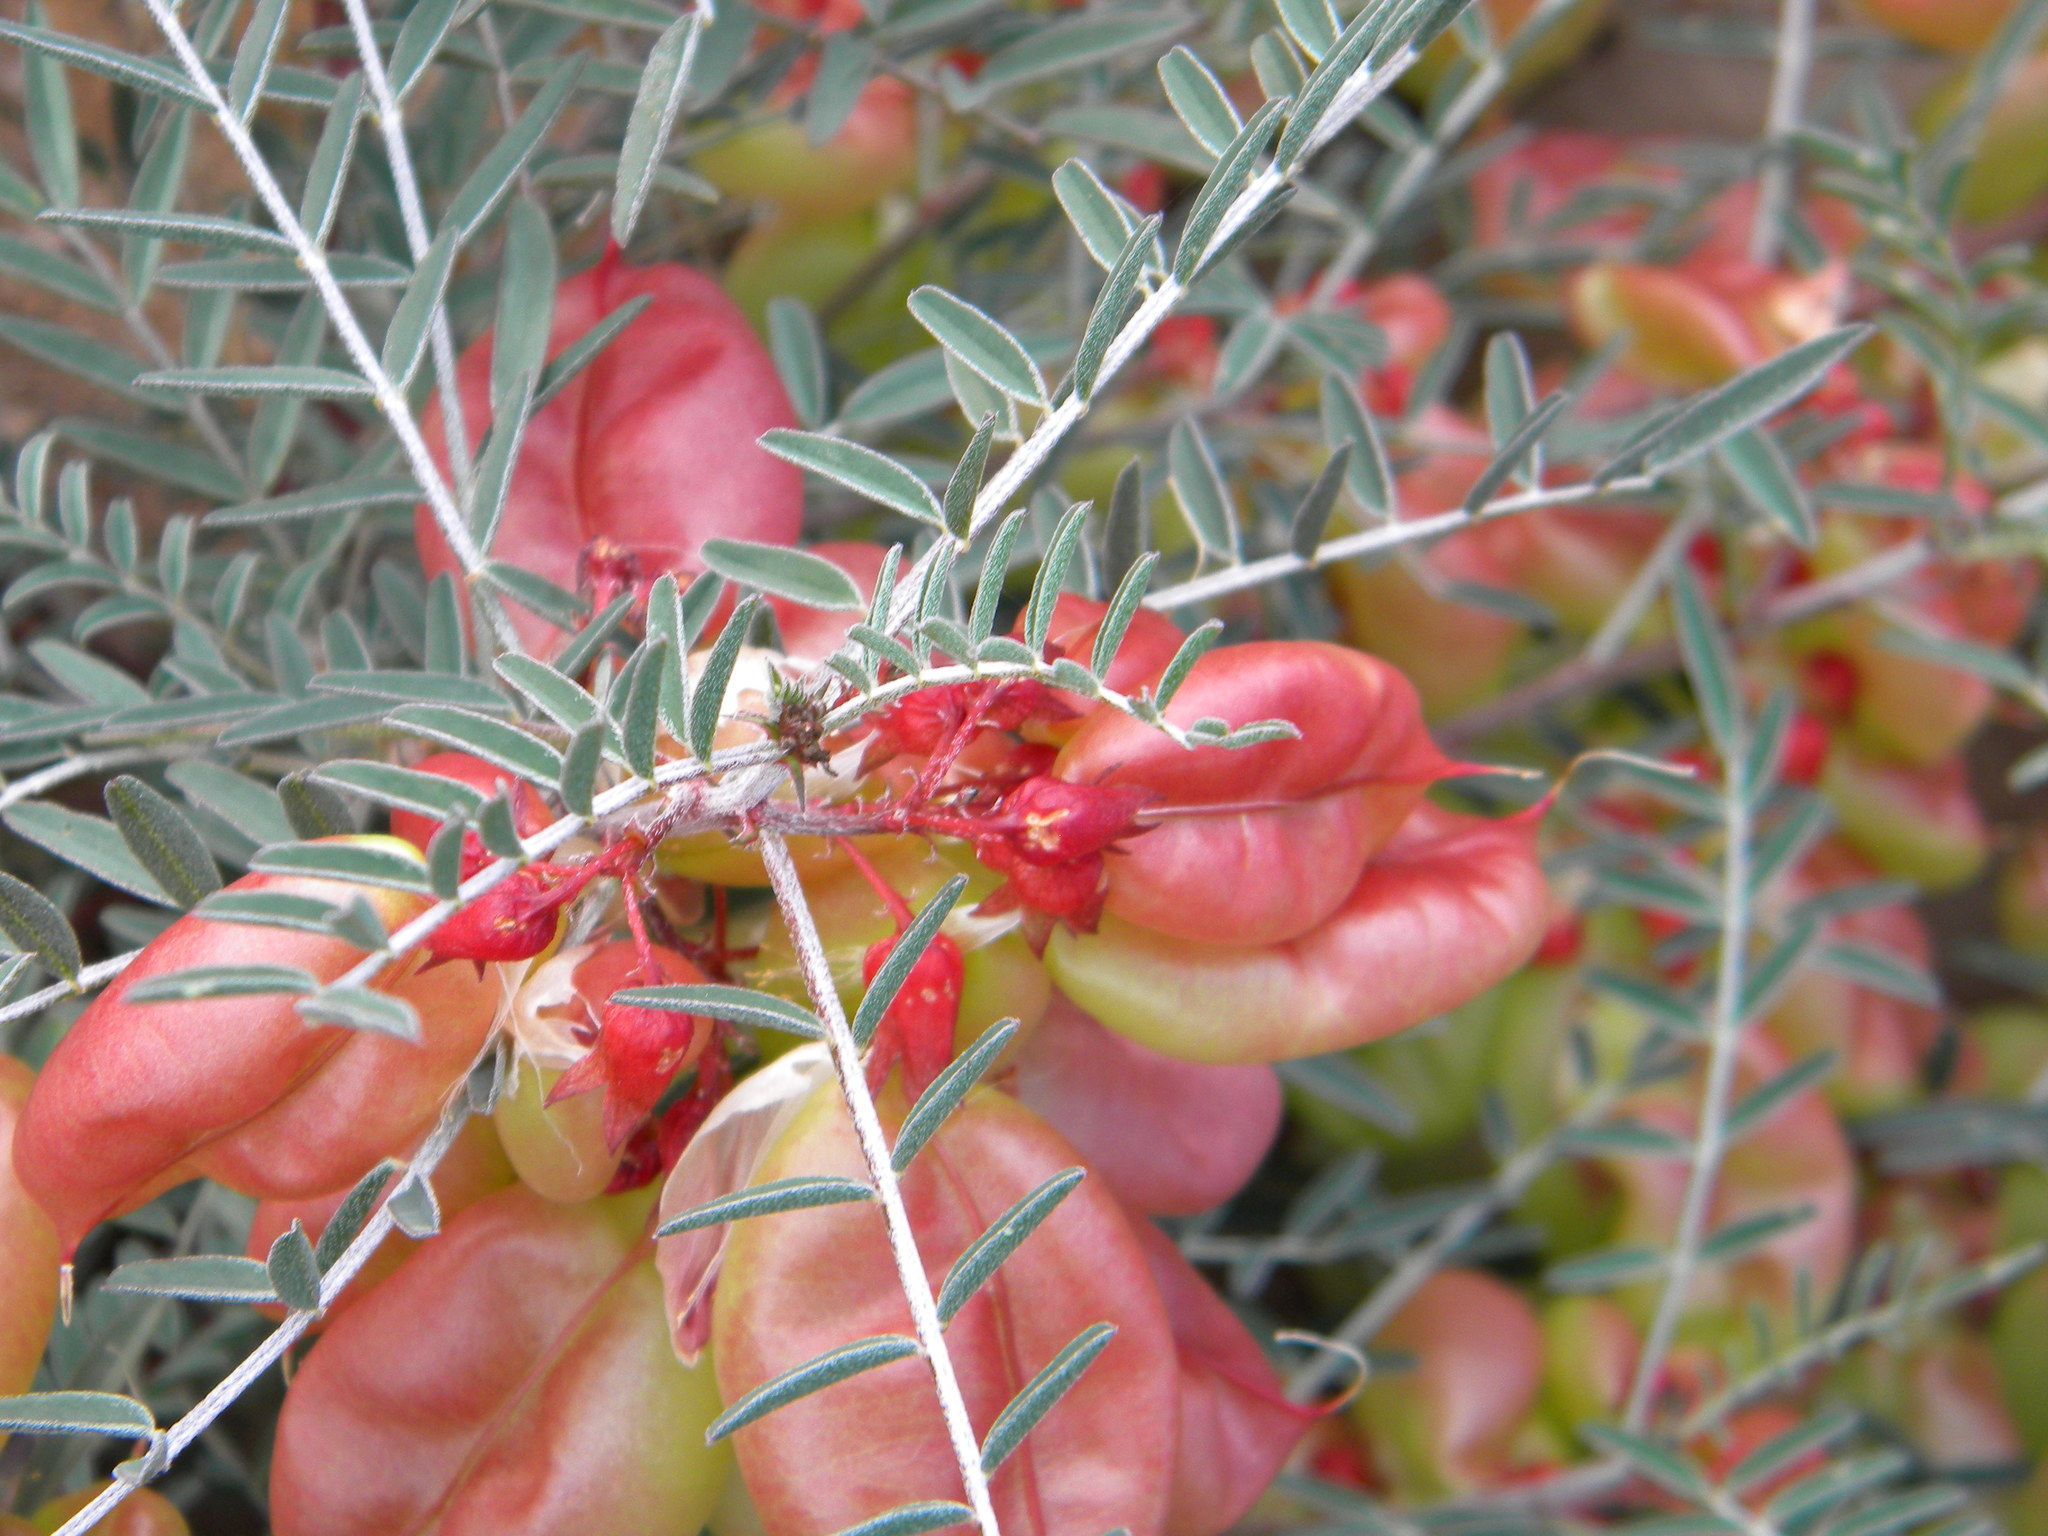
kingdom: Plantae
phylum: Tracheophyta
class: Magnoliopsida
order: Fabales
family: Fabaceae
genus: Lessertia
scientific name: Lessertia frutescens
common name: Balloon-pea
